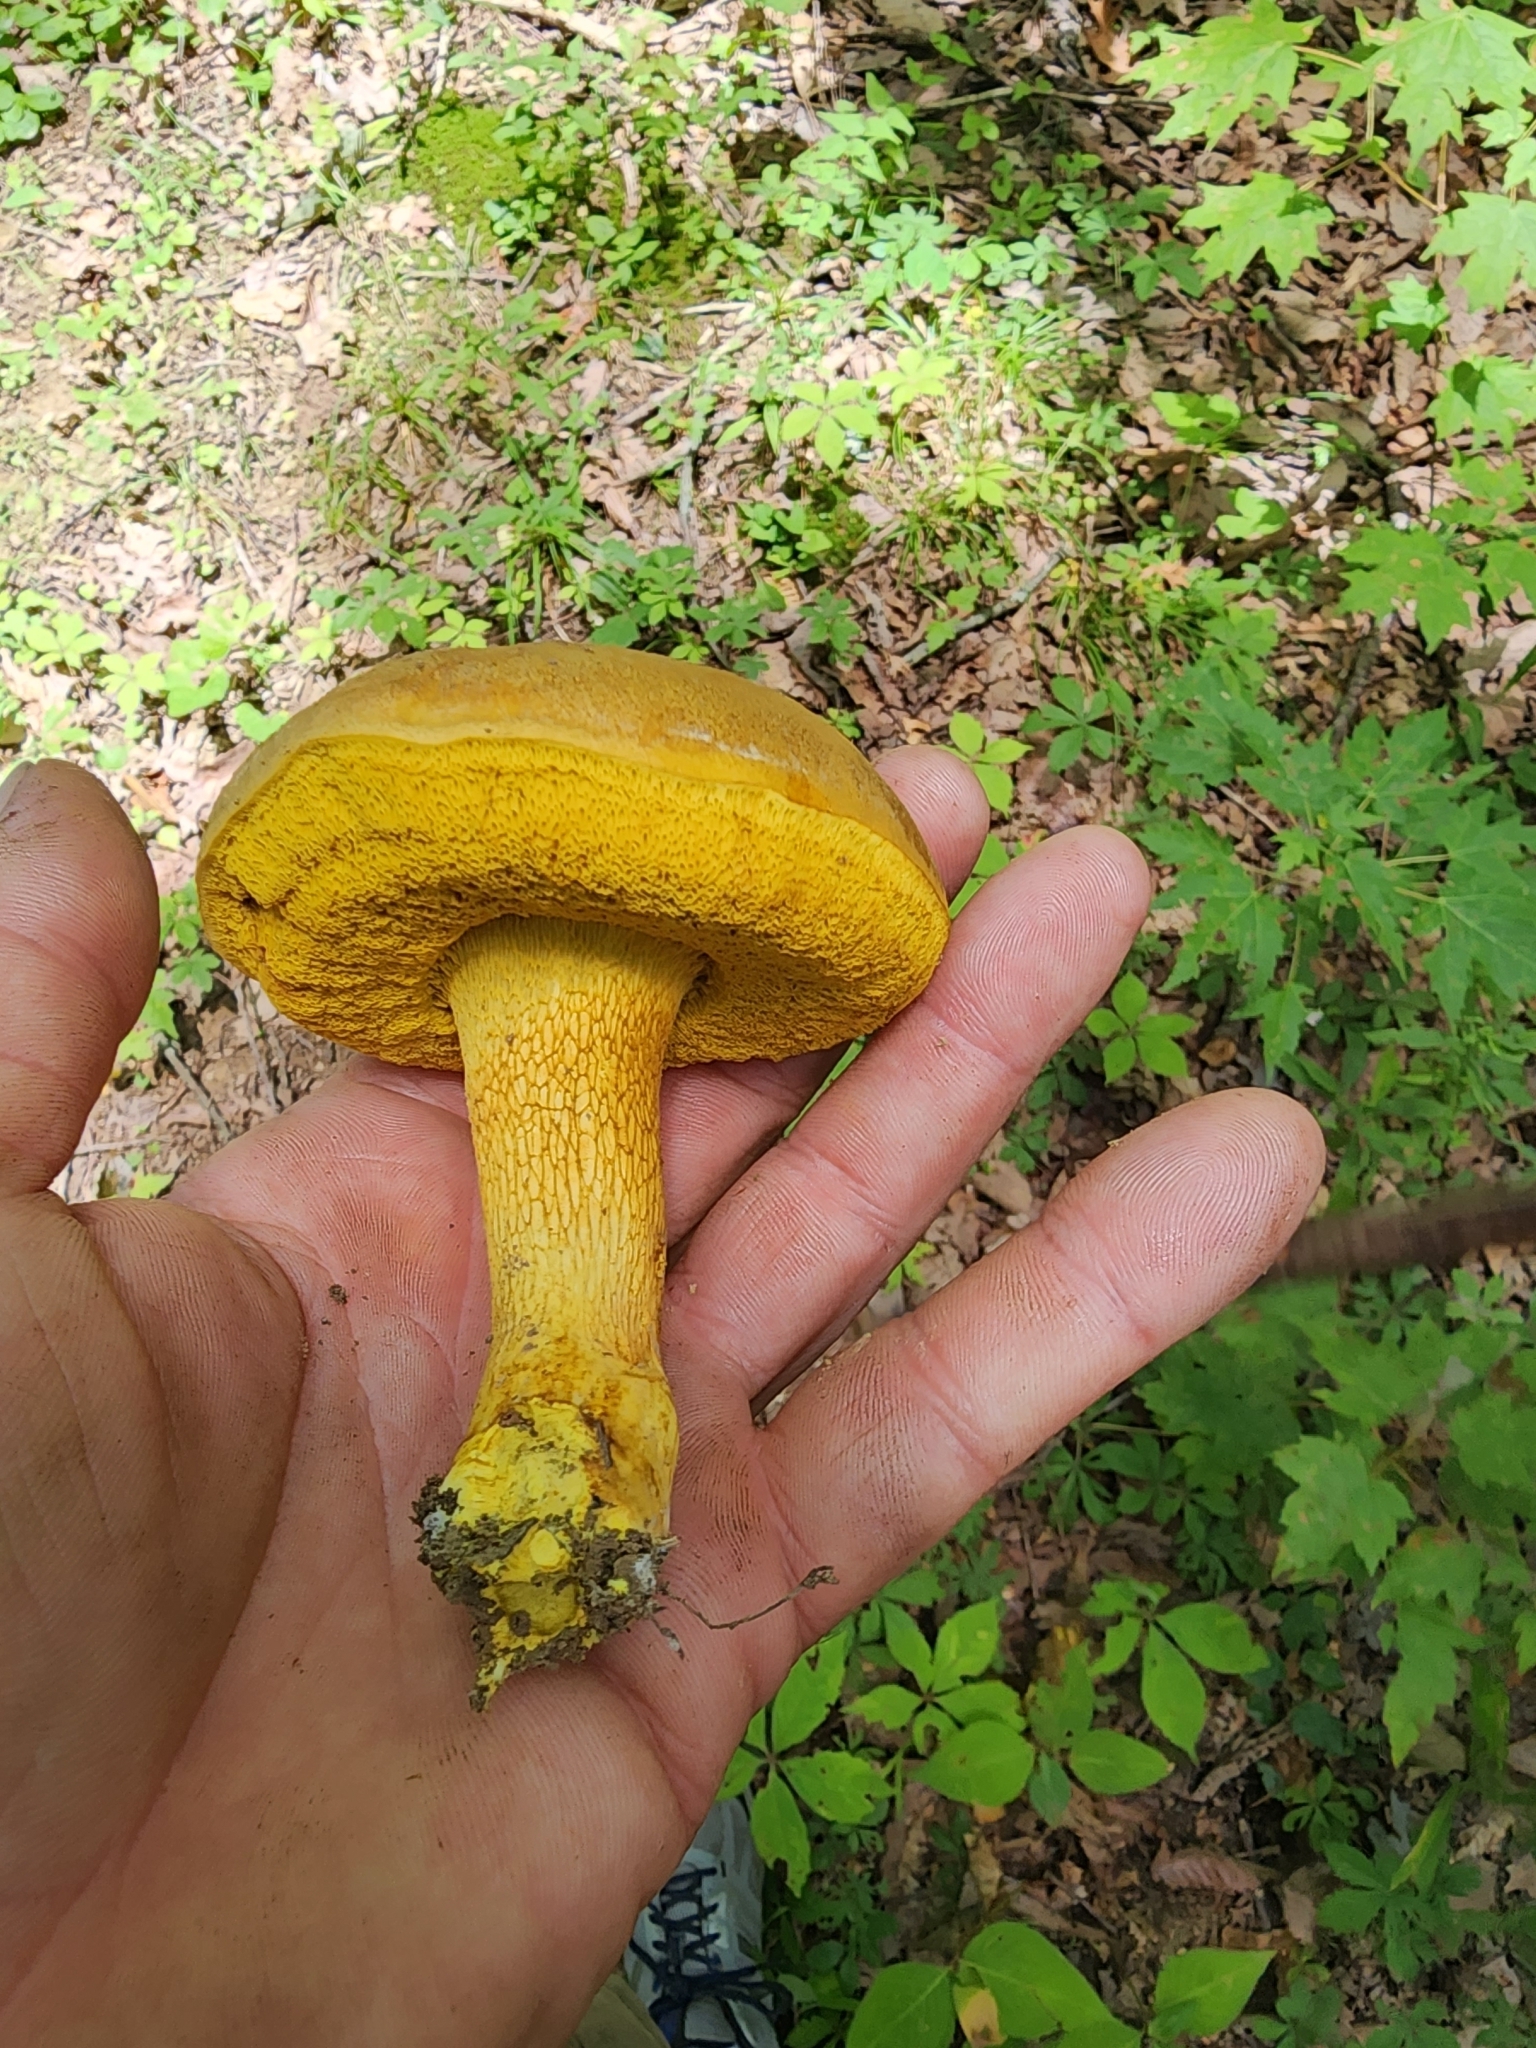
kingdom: Fungi
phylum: Basidiomycota
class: Agaricomycetes
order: Boletales
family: Boletaceae
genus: Retiboletus
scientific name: Retiboletus ornatipes
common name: Ornate-stalked bolete
